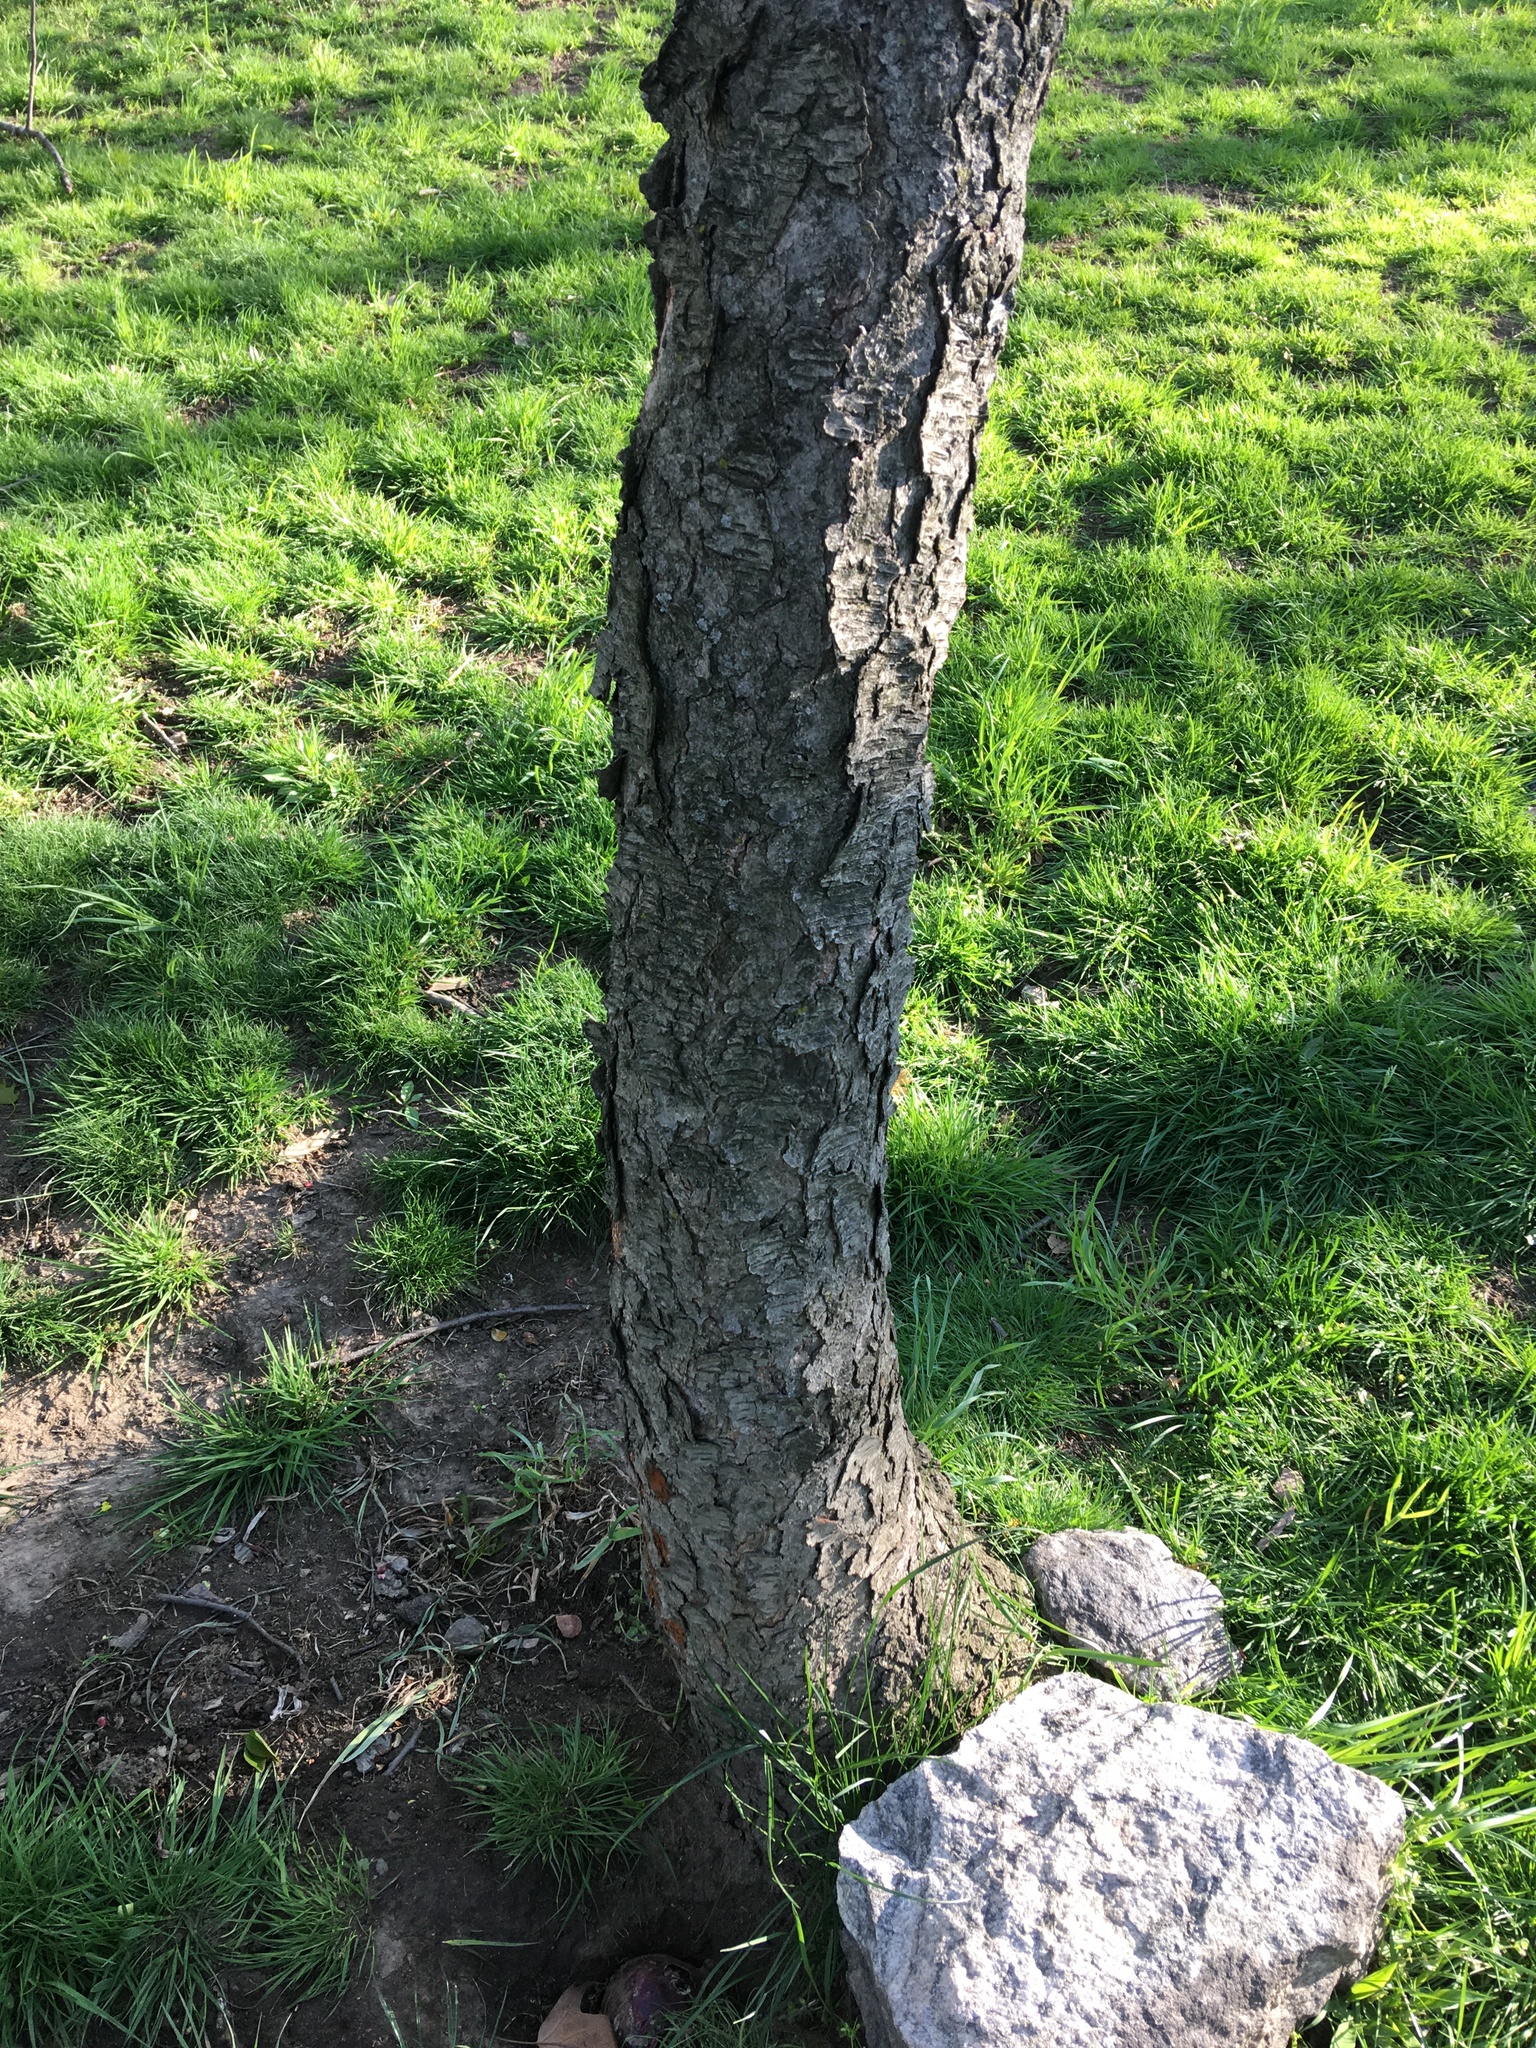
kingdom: Plantae
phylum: Tracheophyta
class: Magnoliopsida
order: Rosales
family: Rosaceae
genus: Prunus
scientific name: Prunus serotina
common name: Black cherry
